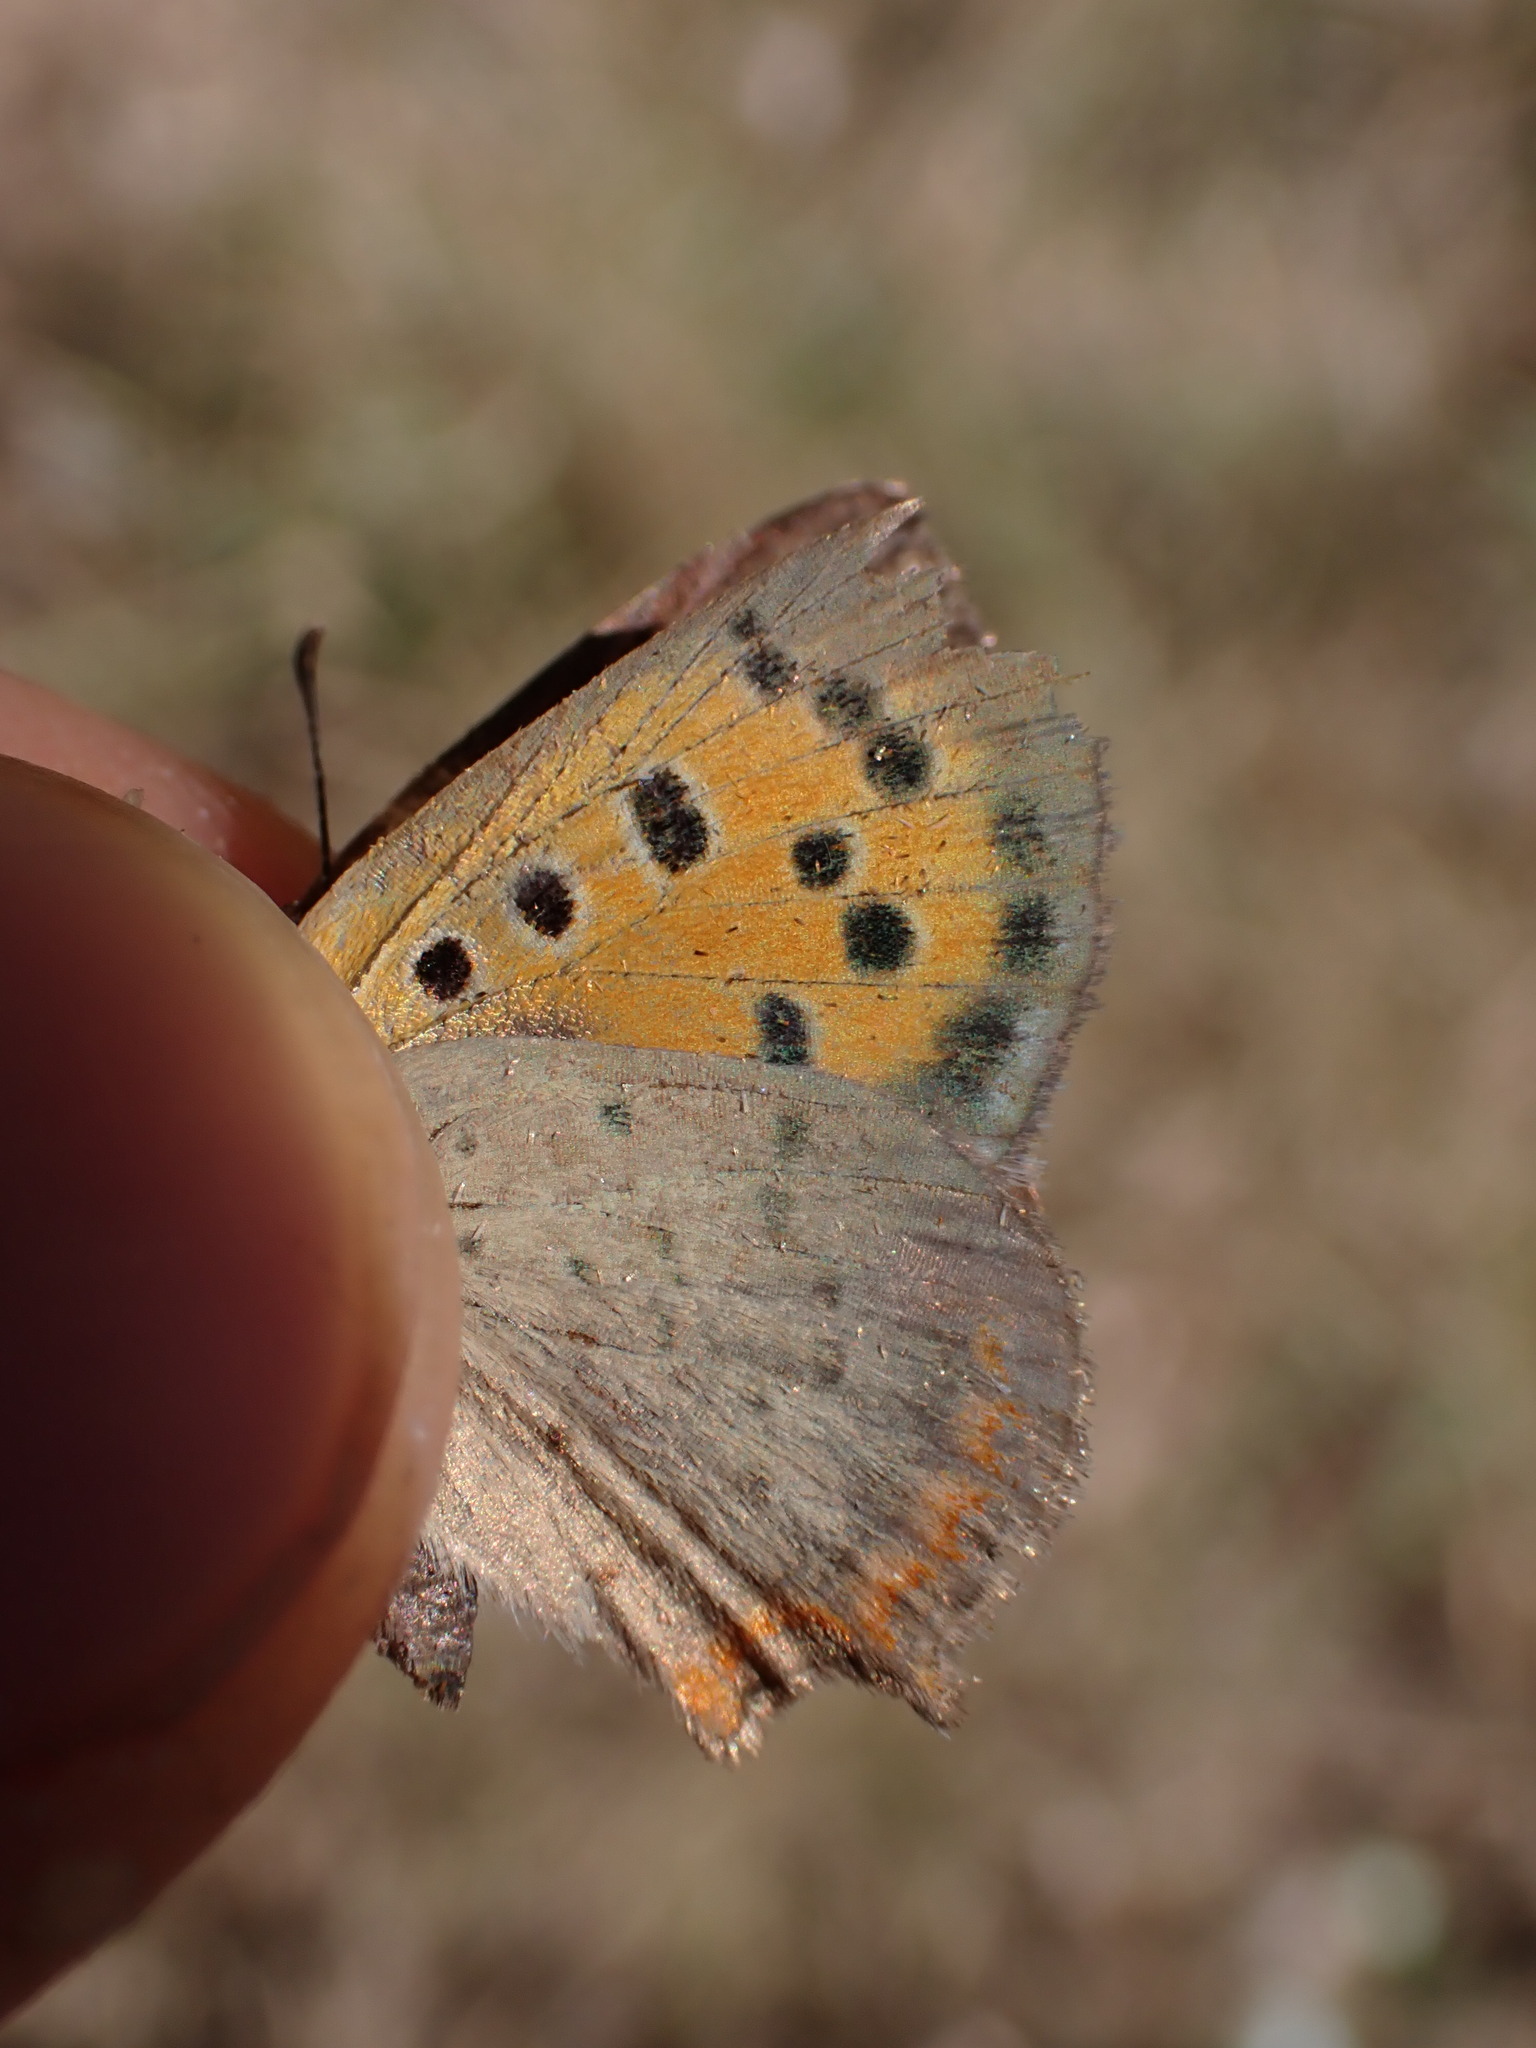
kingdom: Animalia
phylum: Arthropoda
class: Insecta
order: Lepidoptera
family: Lycaenidae
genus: Lycaena
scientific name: Lycaena phlaeas
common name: Small copper
